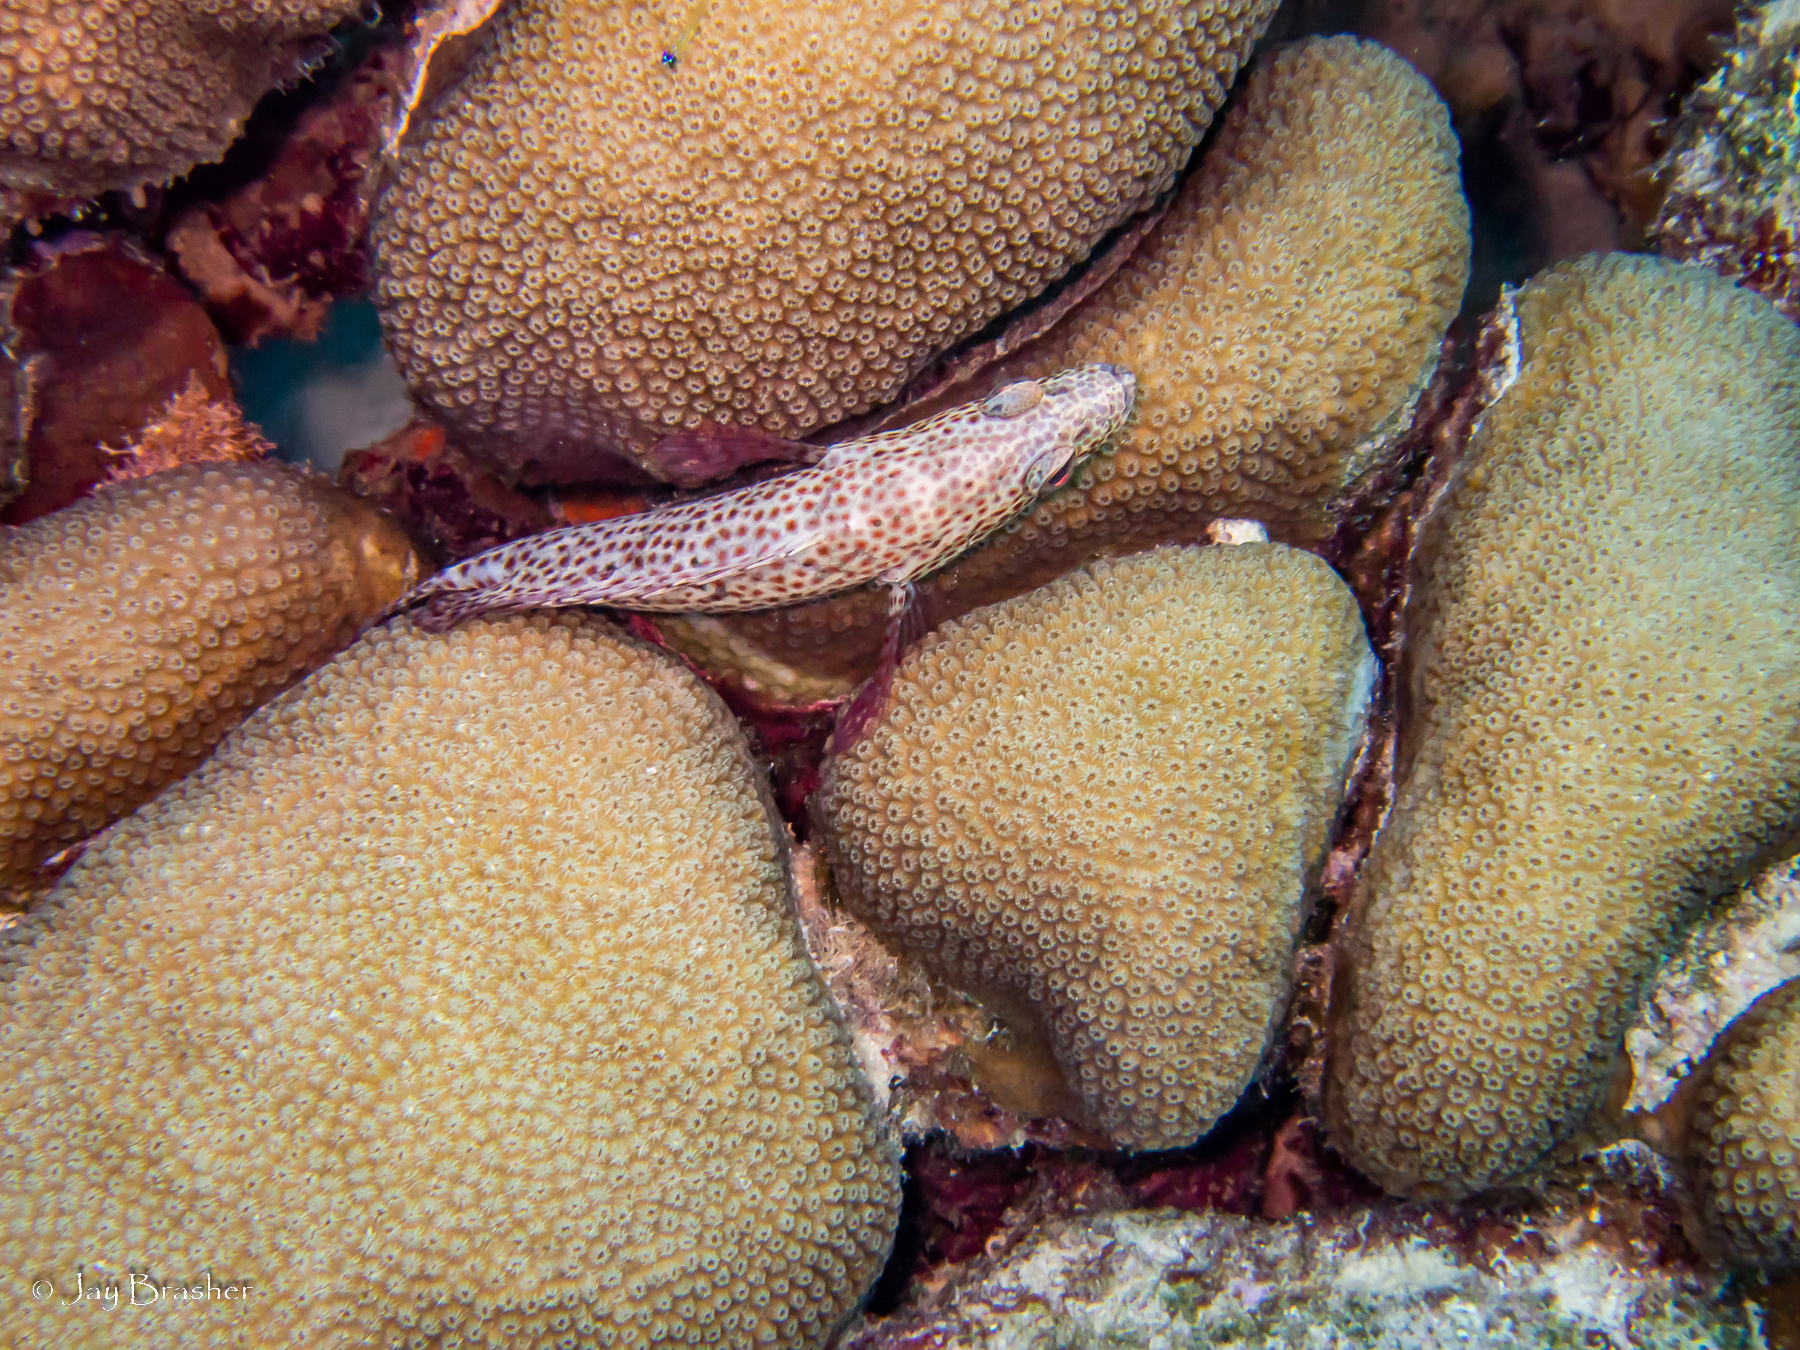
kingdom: Animalia
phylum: Chordata
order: Perciformes
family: Serranidae
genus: Cephalopholis
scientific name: Cephalopholis cruentata
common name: Graysby
